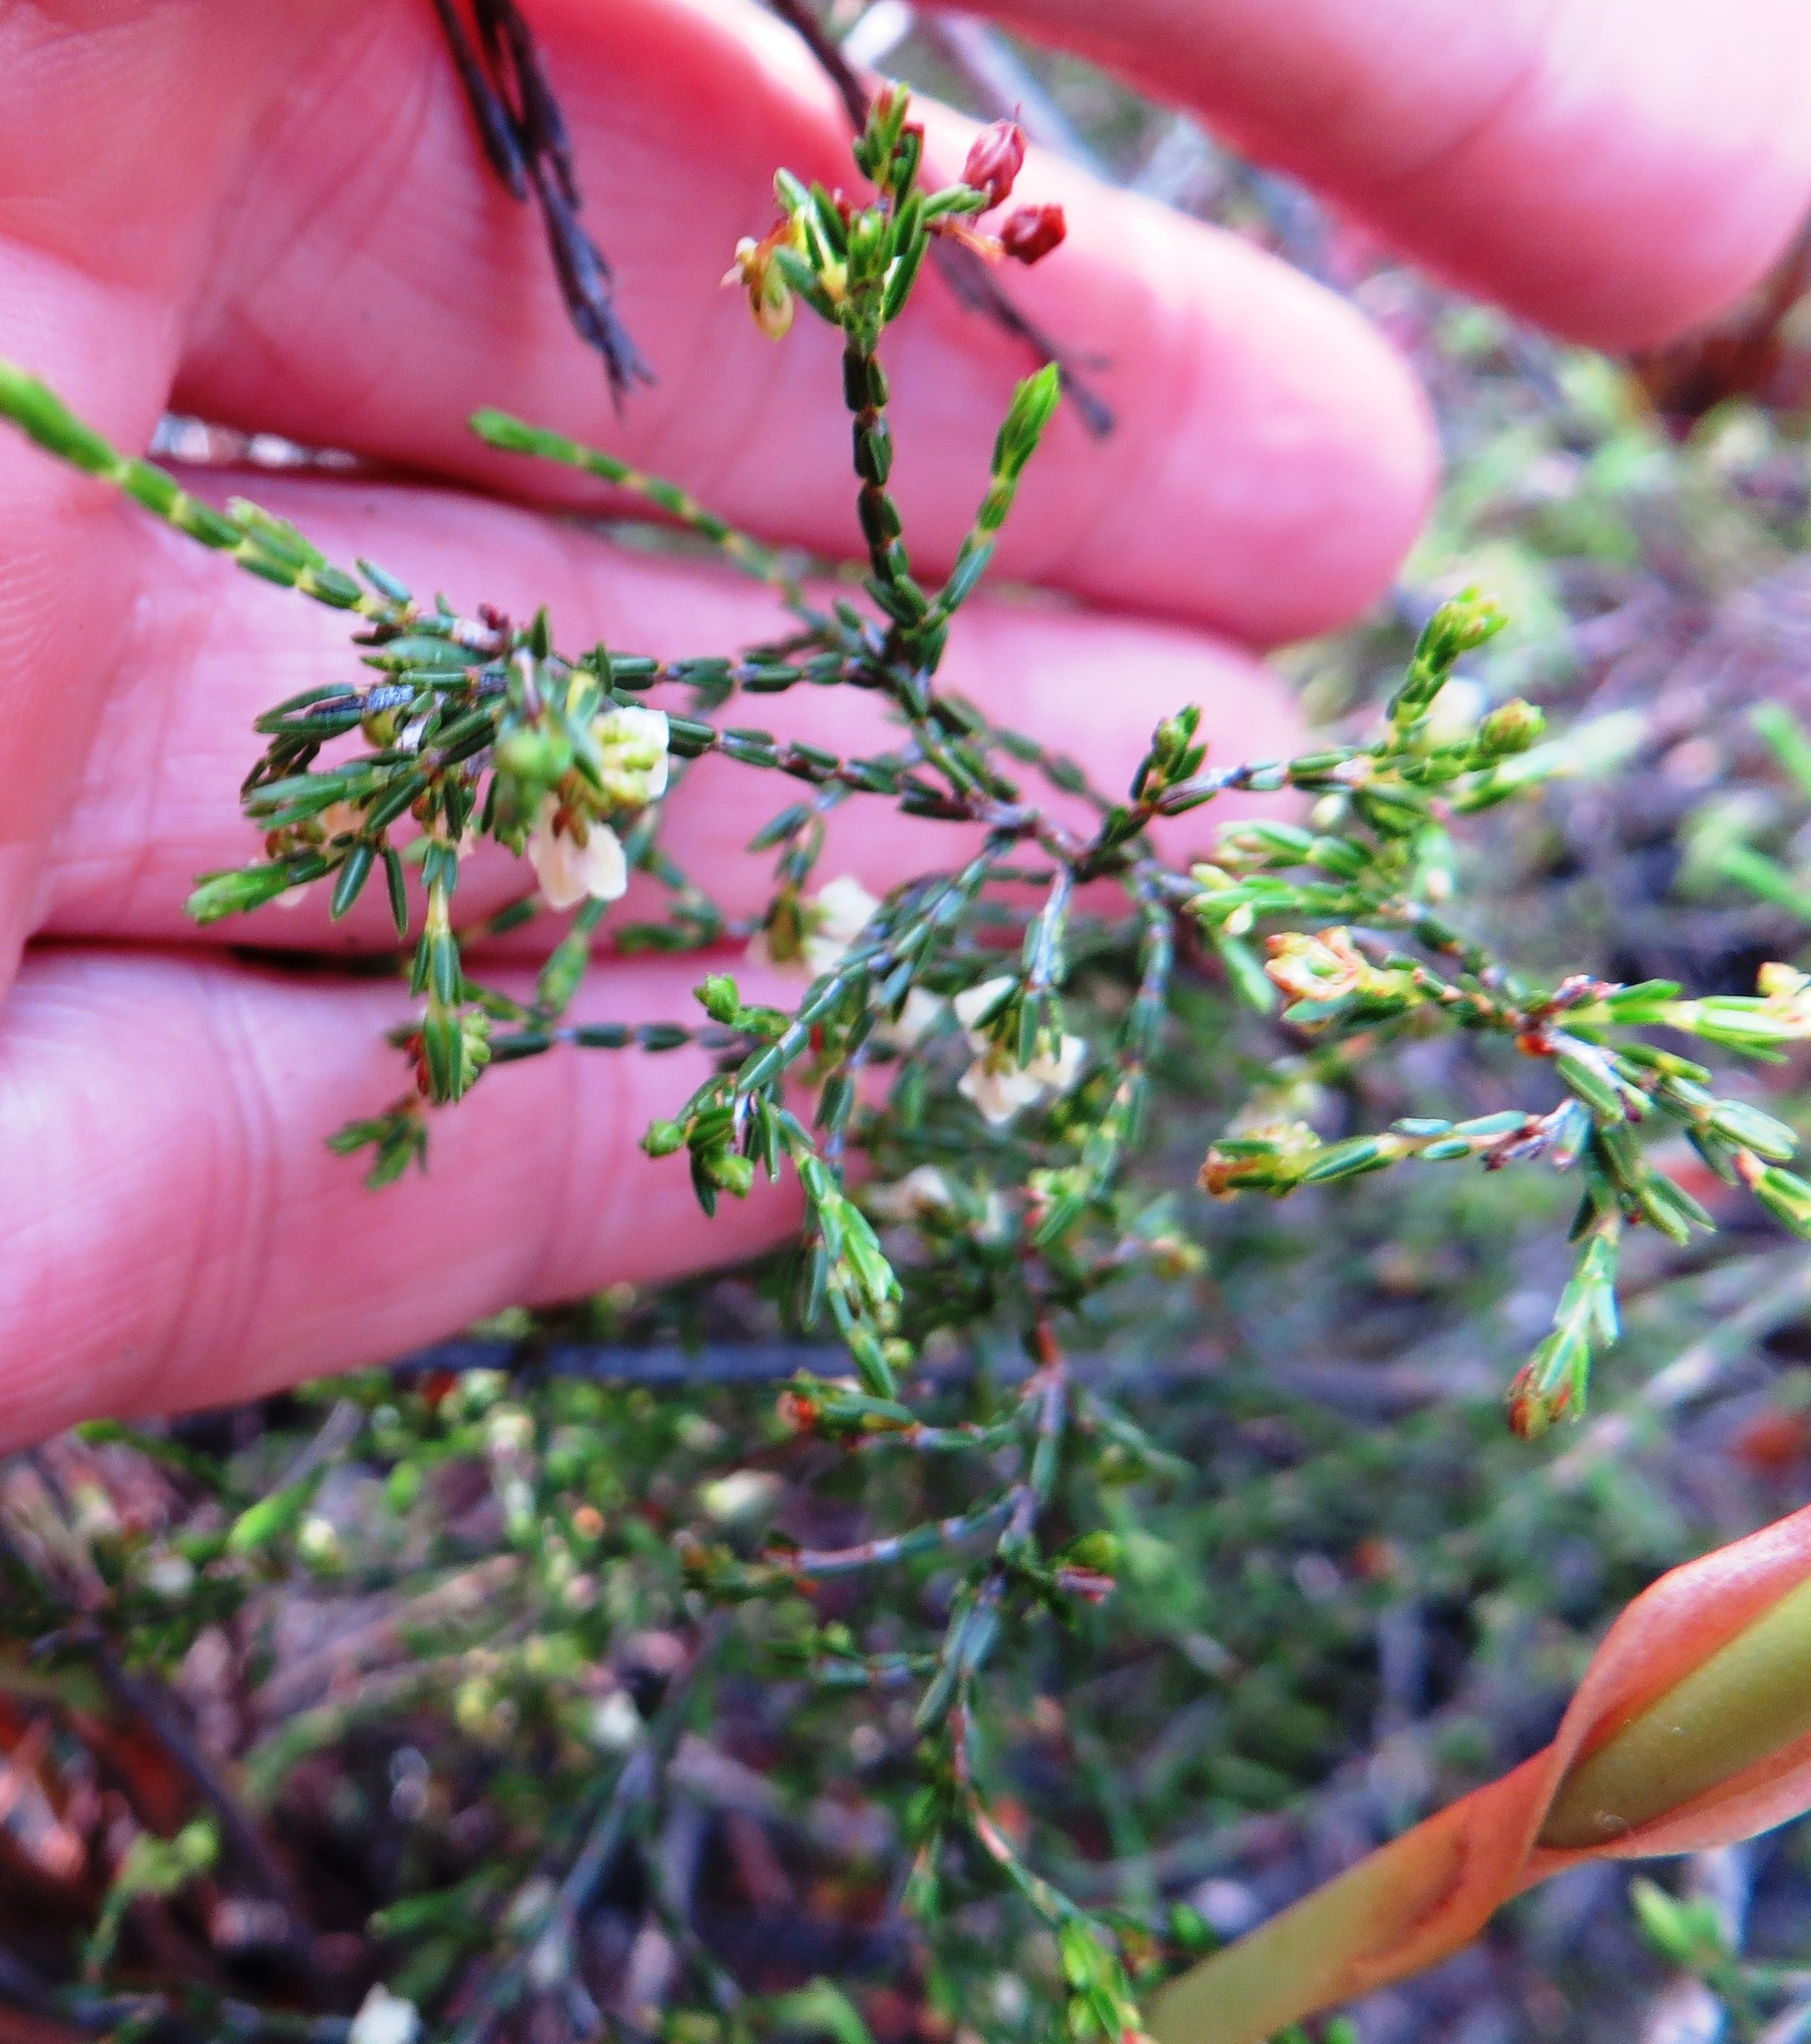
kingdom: Plantae
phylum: Tracheophyta
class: Magnoliopsida
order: Ericales
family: Ericaceae
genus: Erica
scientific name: Erica multiflexuosa
